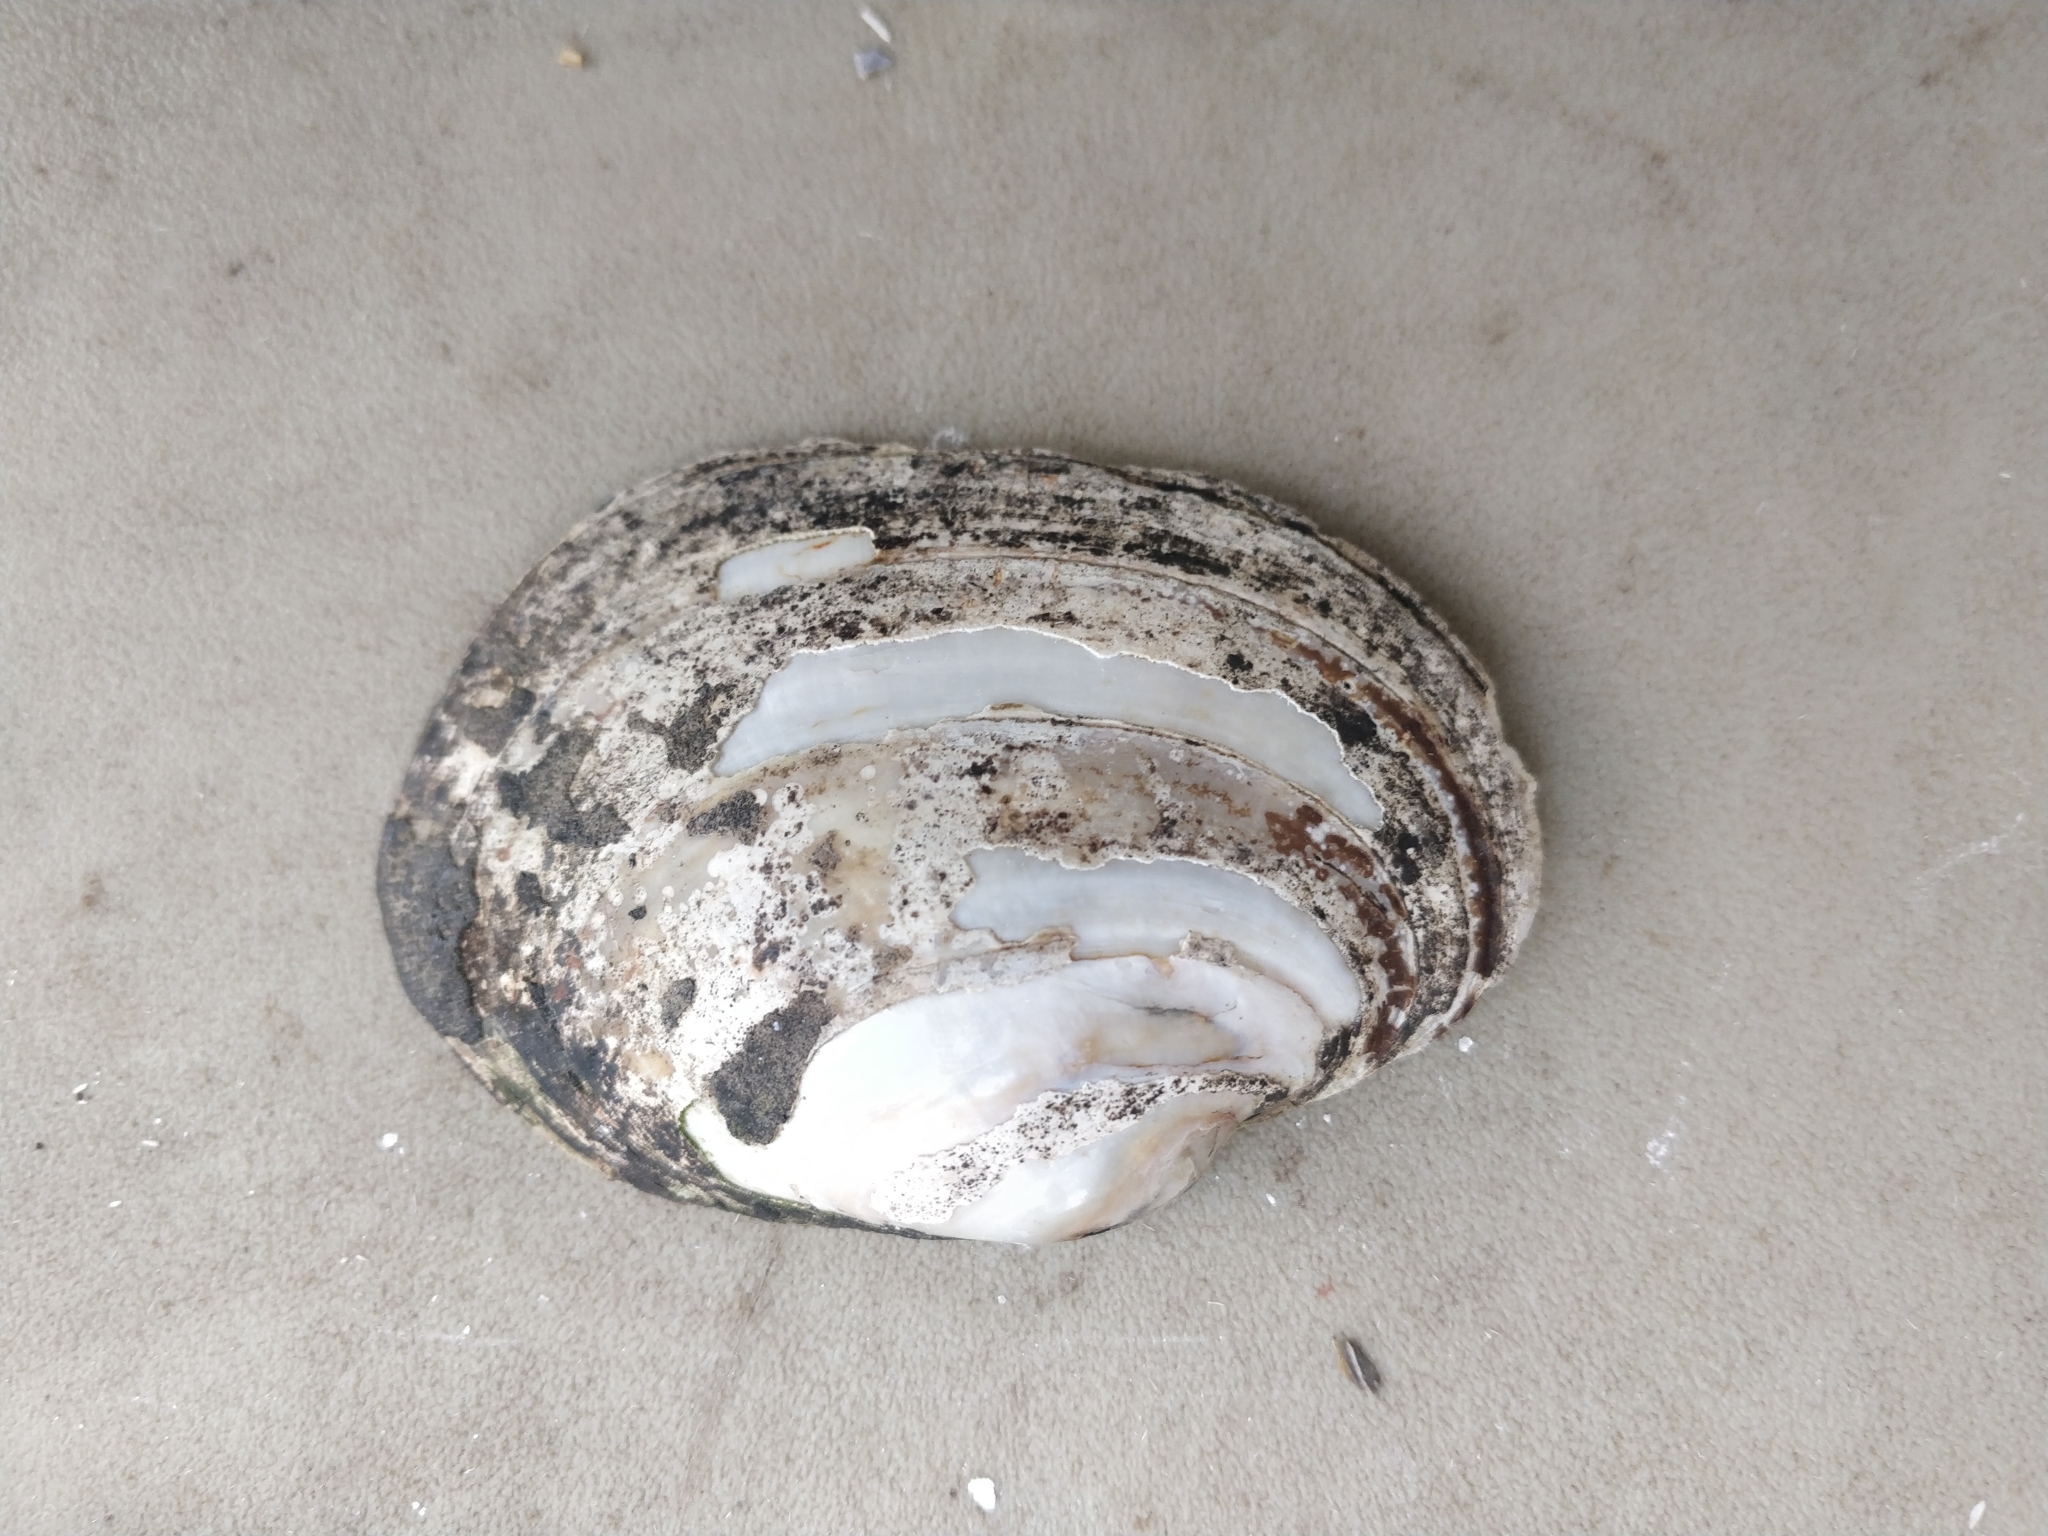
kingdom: Animalia
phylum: Mollusca
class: Bivalvia
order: Unionida
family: Unionidae
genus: Lampsilis
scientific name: Lampsilis cardium
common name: Plain pocketbook
